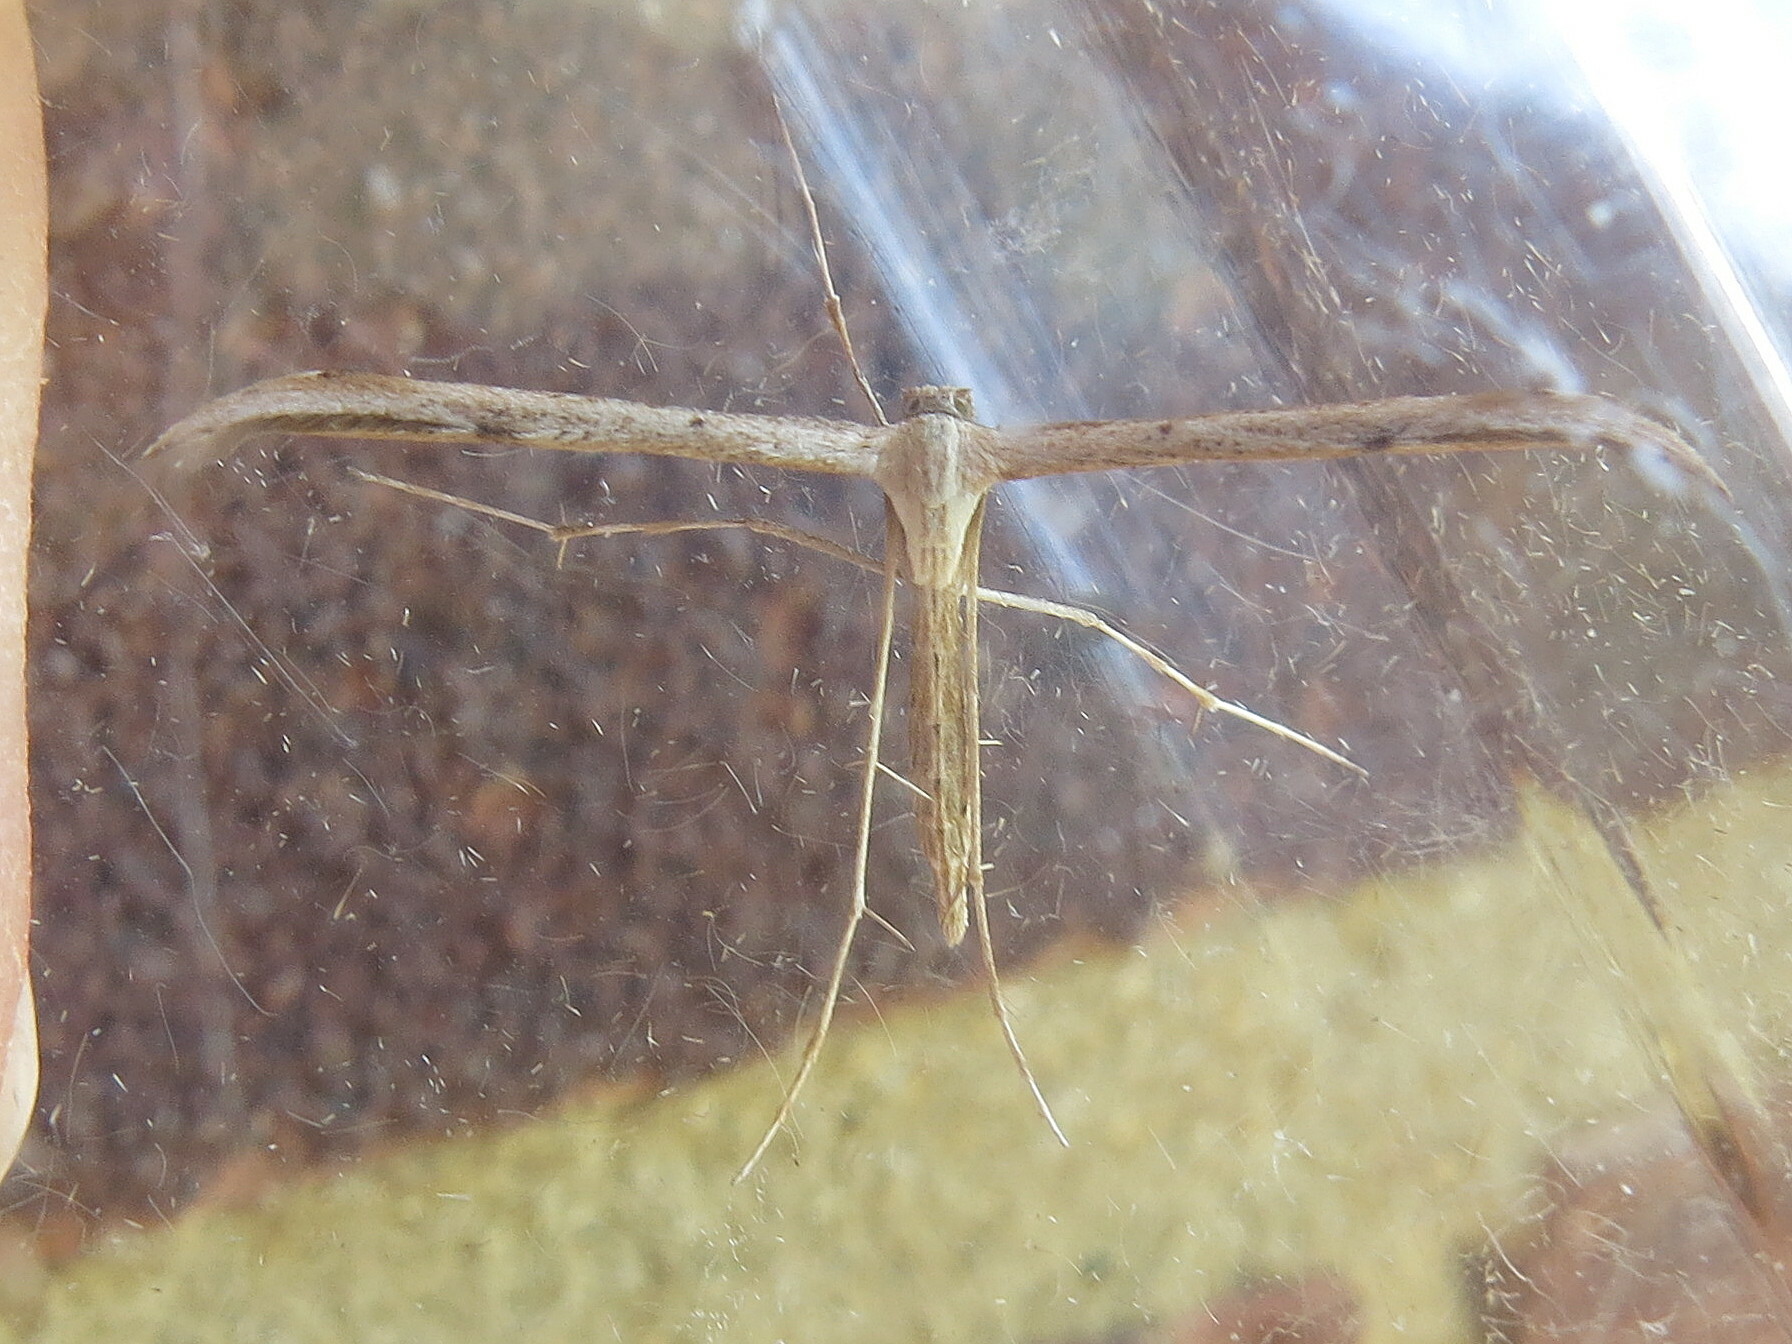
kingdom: Animalia
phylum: Arthropoda
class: Insecta
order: Lepidoptera
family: Pterophoridae
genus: Emmelina
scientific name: Emmelina monodactyla
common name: Common plume
